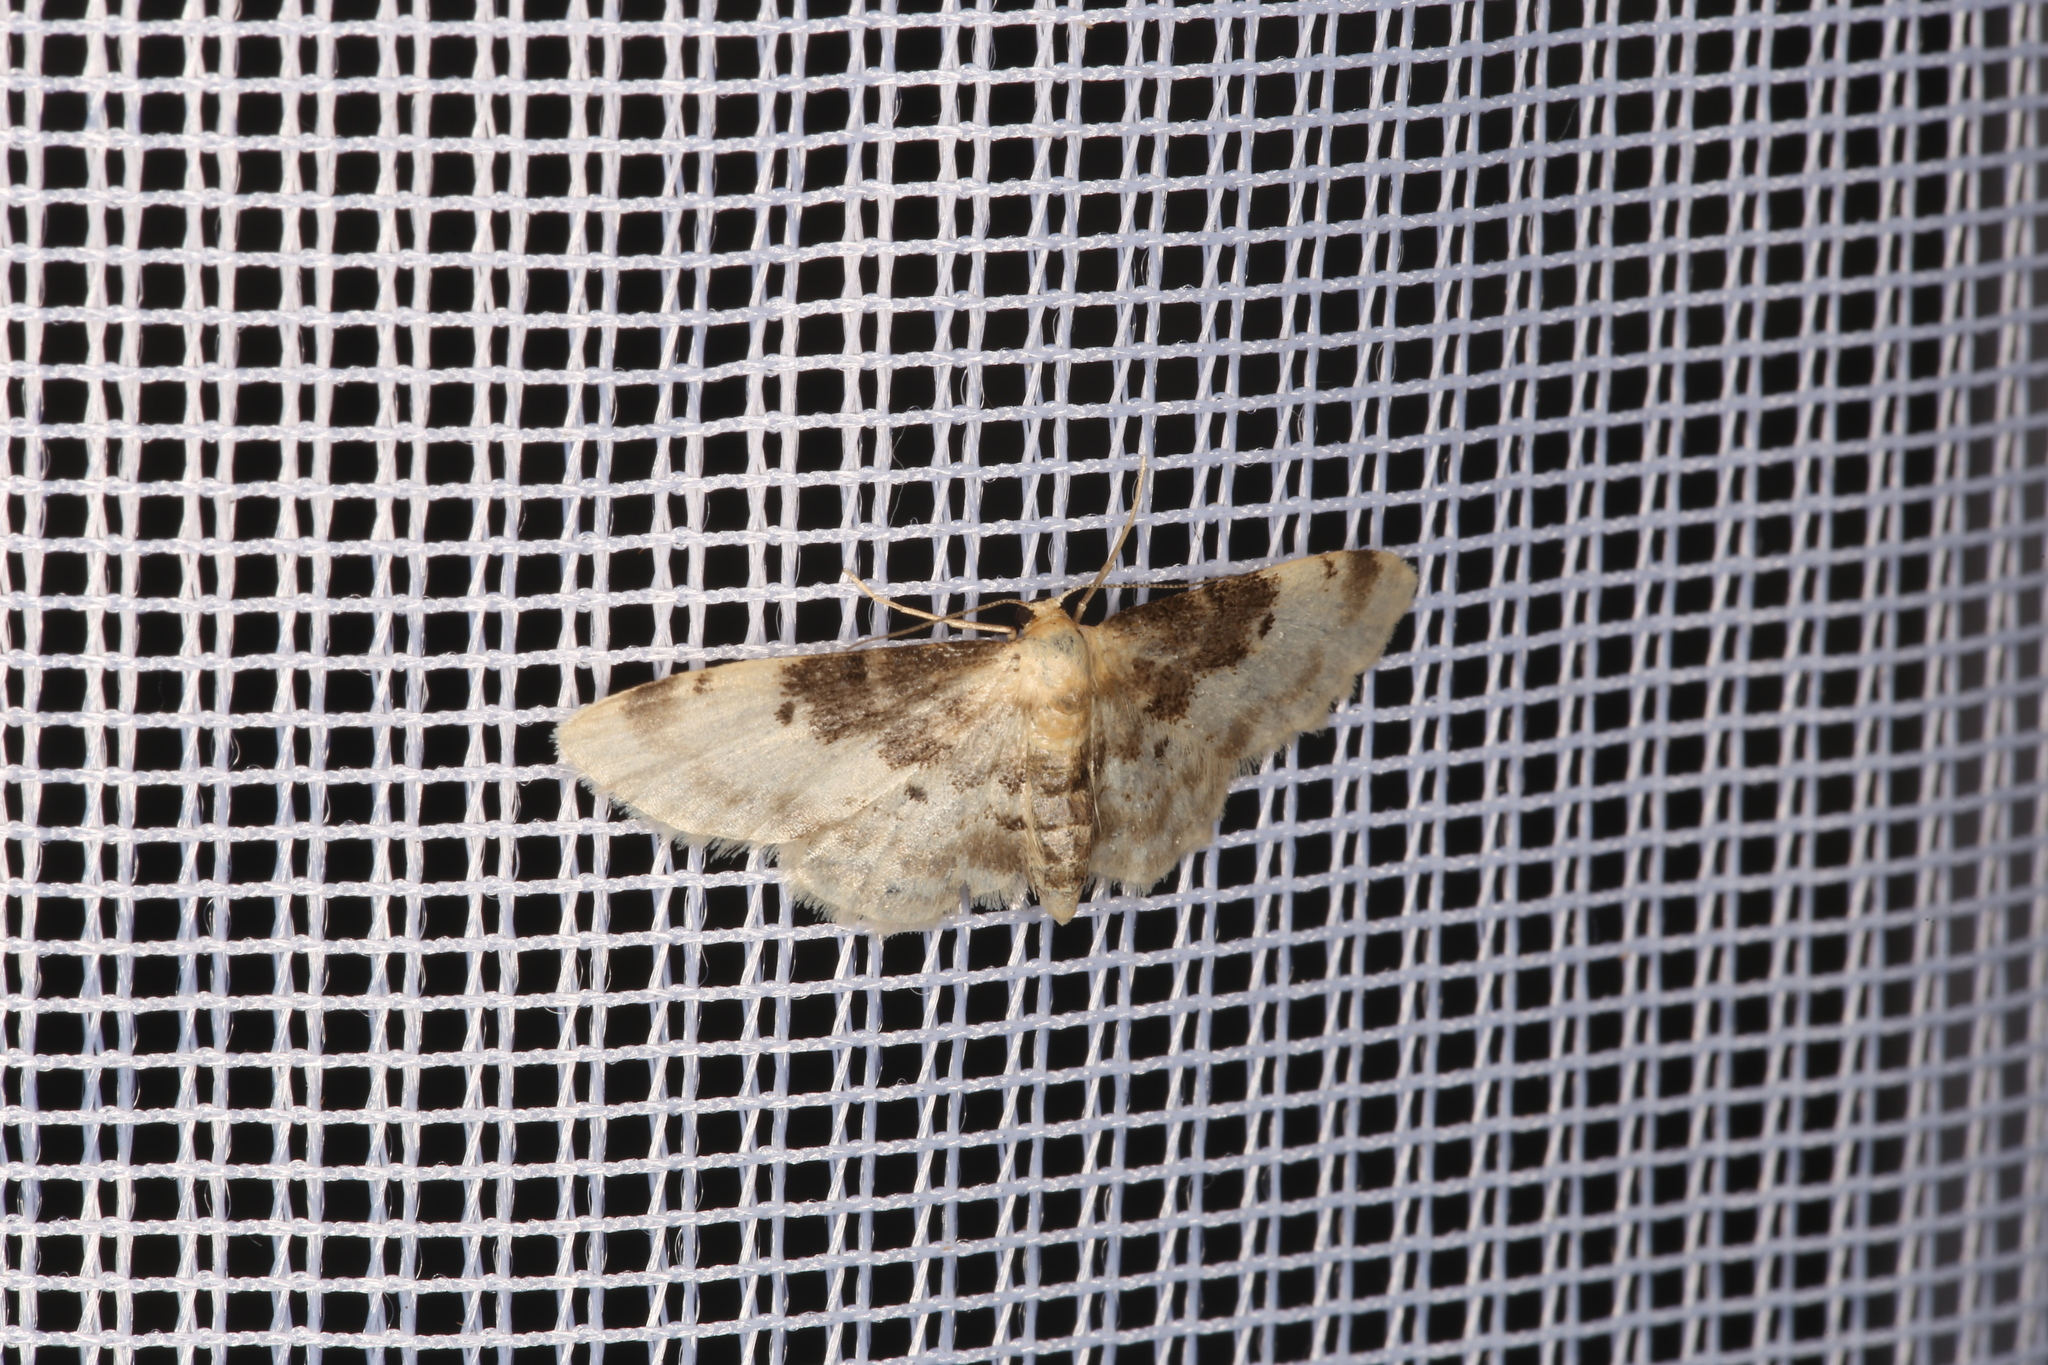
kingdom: Animalia
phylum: Arthropoda
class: Insecta
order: Lepidoptera
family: Geometridae
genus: Idaea
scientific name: Idaea filicata
